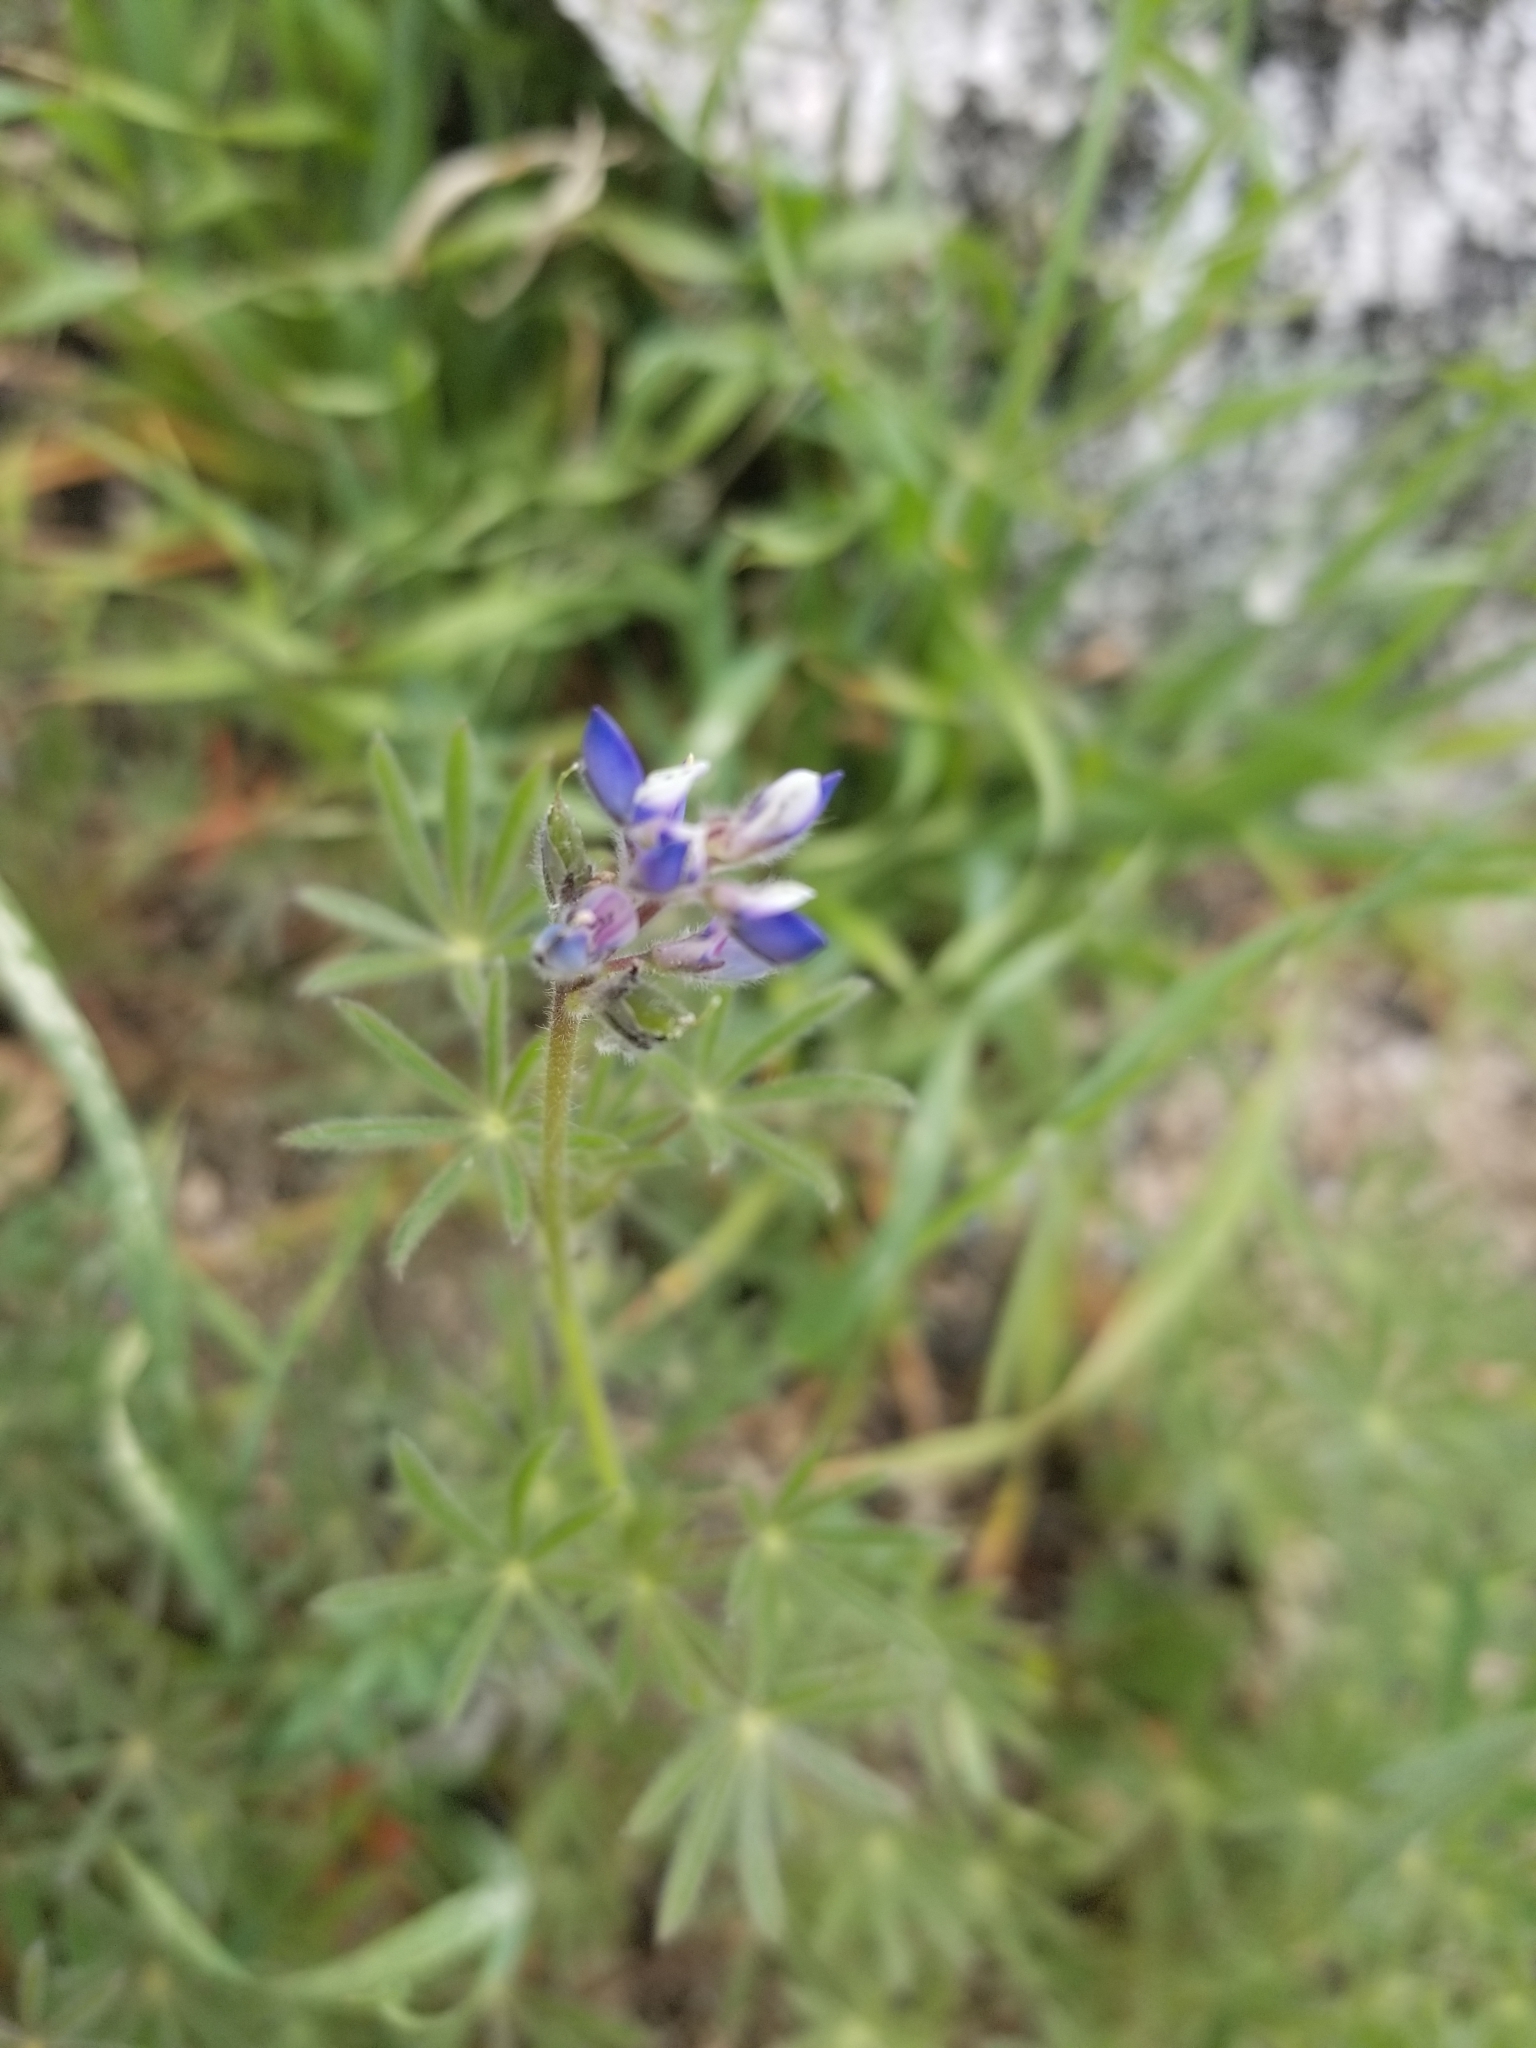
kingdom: Plantae
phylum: Tracheophyta
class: Magnoliopsida
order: Fabales
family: Fabaceae
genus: Lupinus
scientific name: Lupinus bicolor
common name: Miniature lupine
